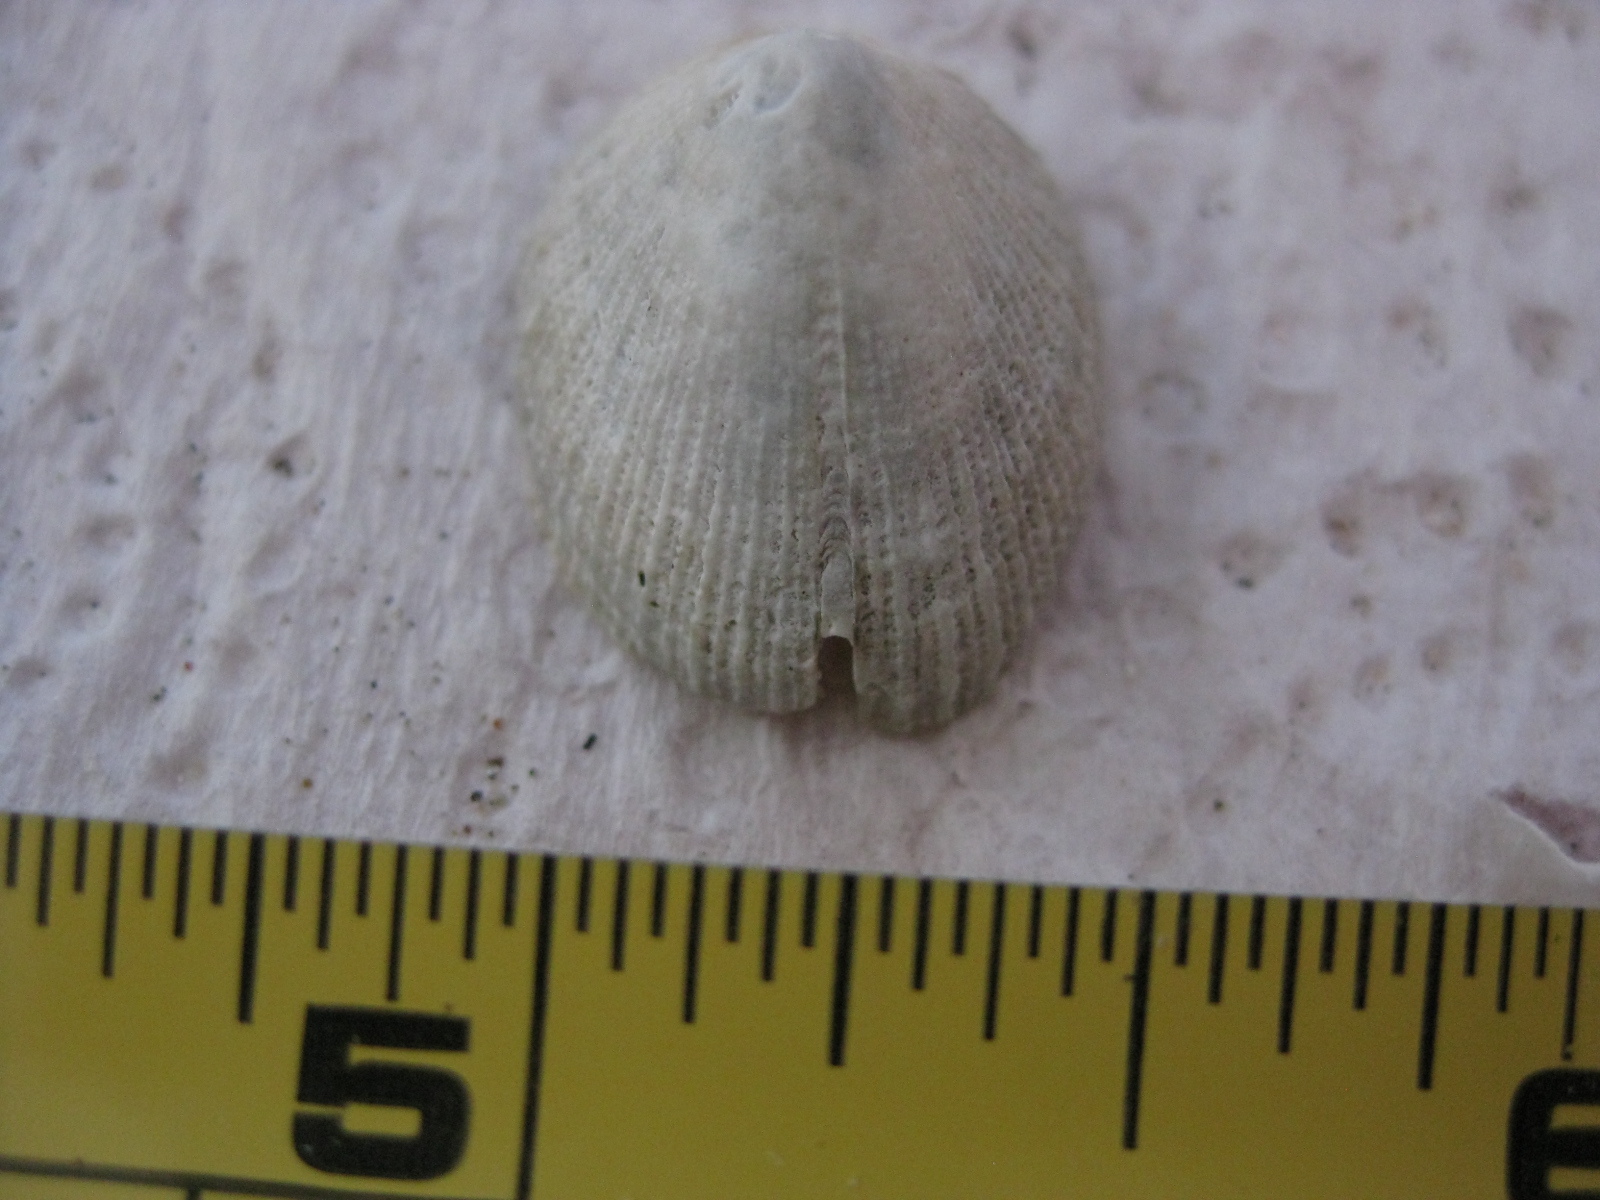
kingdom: Animalia
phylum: Mollusca
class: Gastropoda
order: Lepetellida
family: Fissurellidae
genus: Emarginula
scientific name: Emarginula striatula
